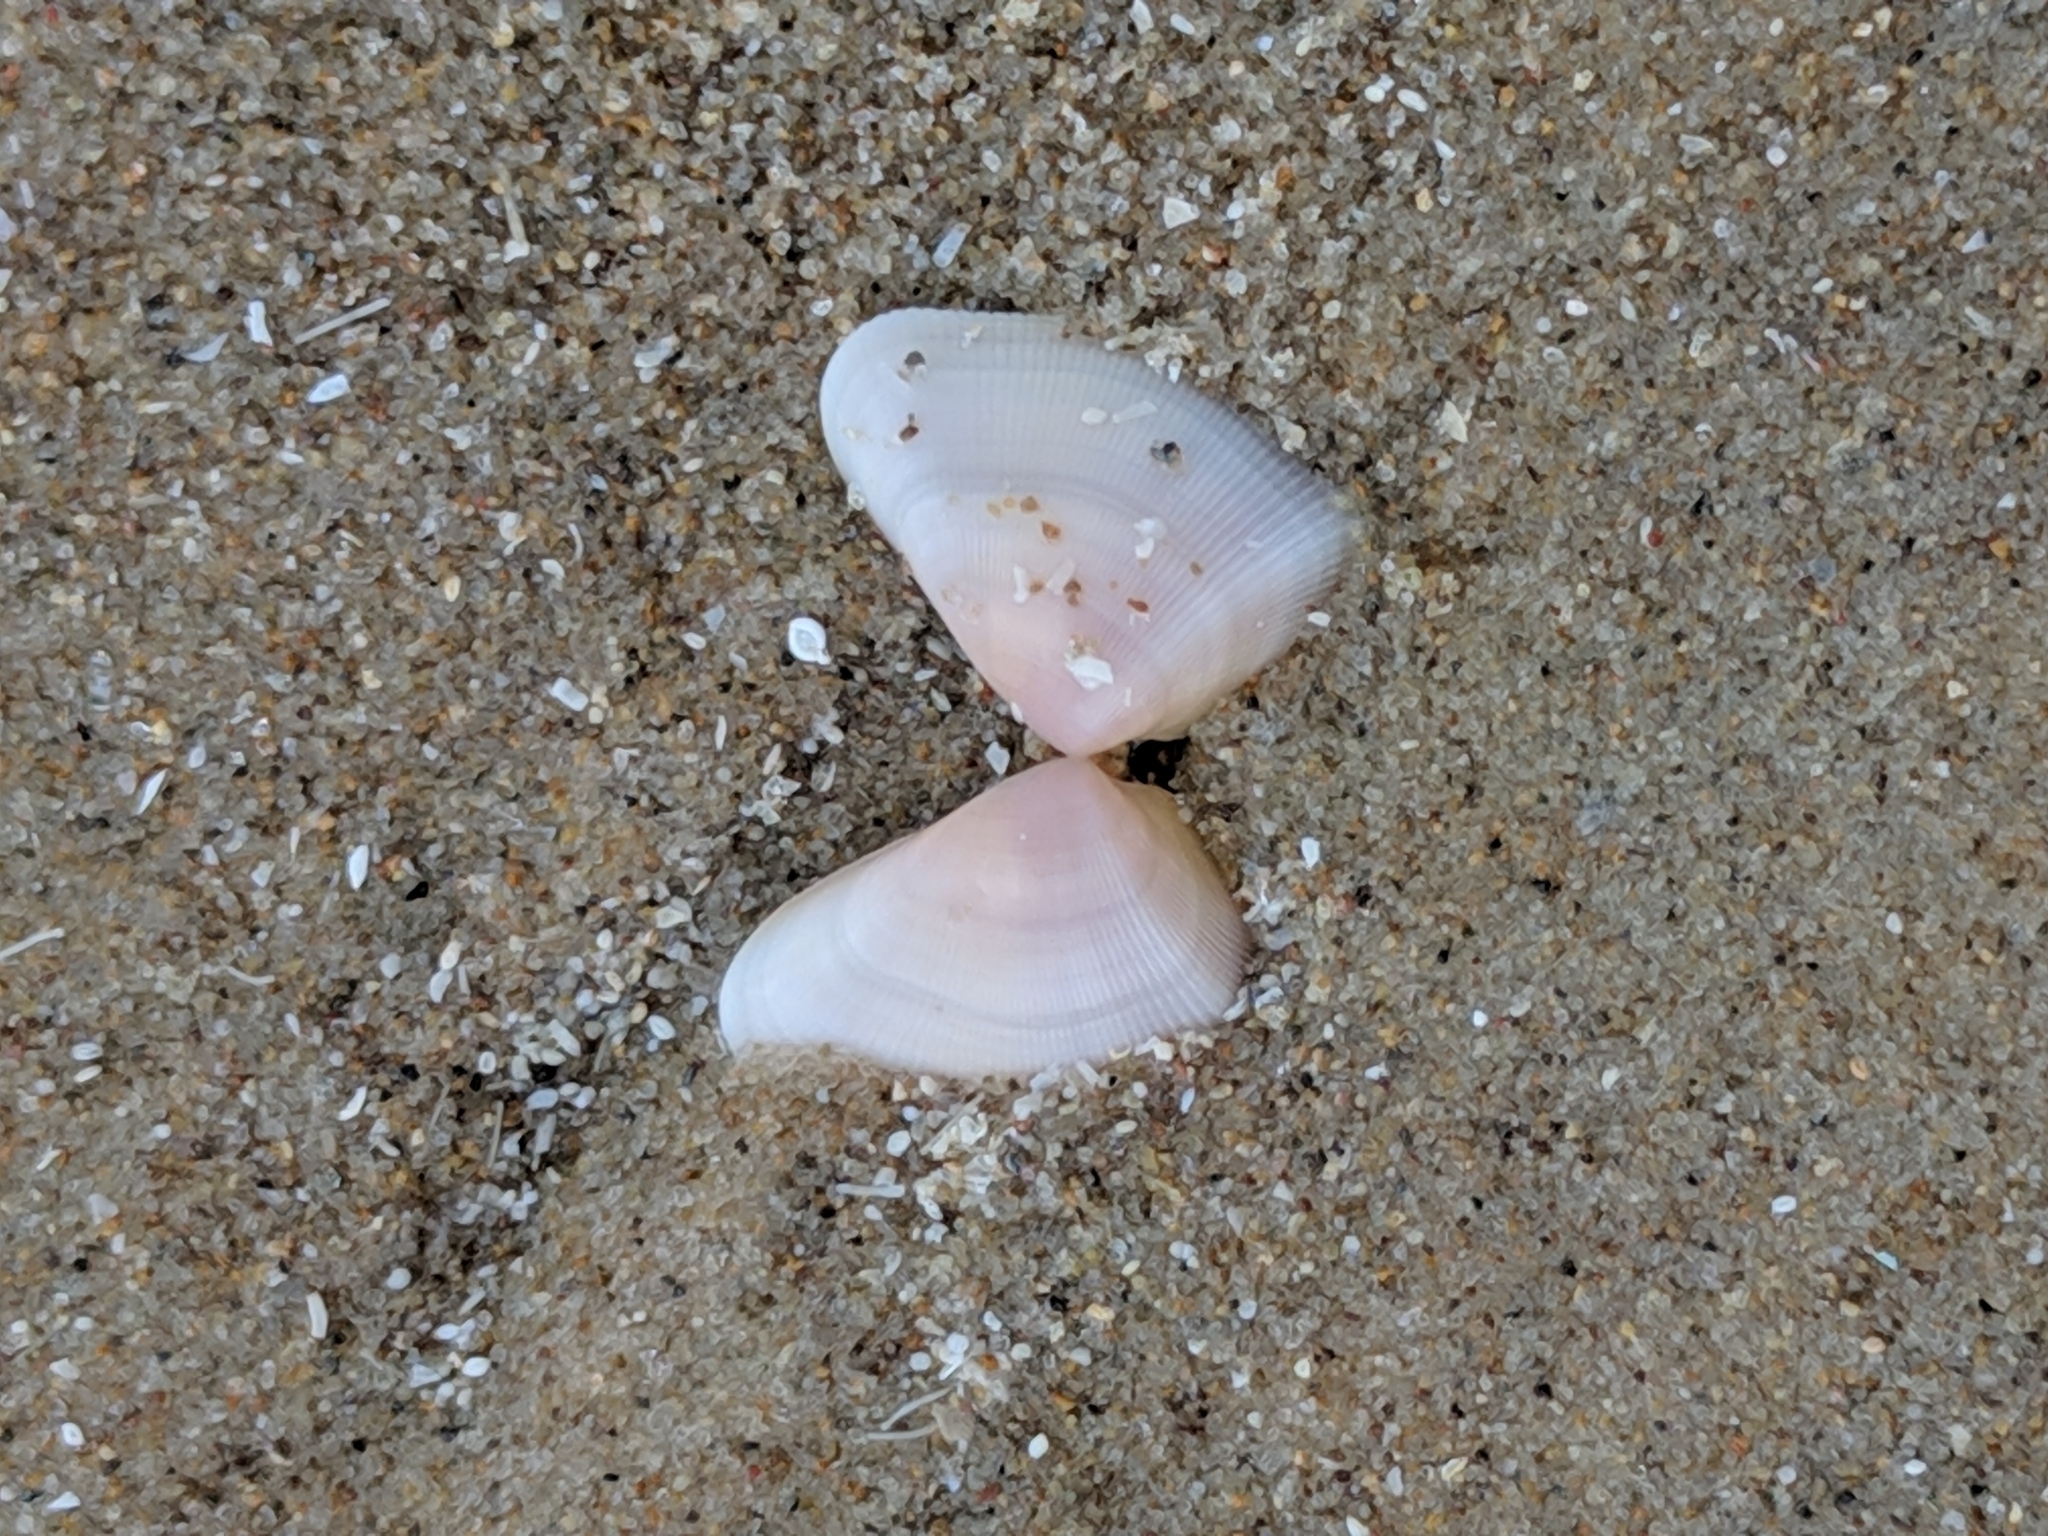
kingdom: Animalia
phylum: Mollusca
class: Bivalvia
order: Cardiida
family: Donacidae
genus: Donax
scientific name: Donax texasianus
